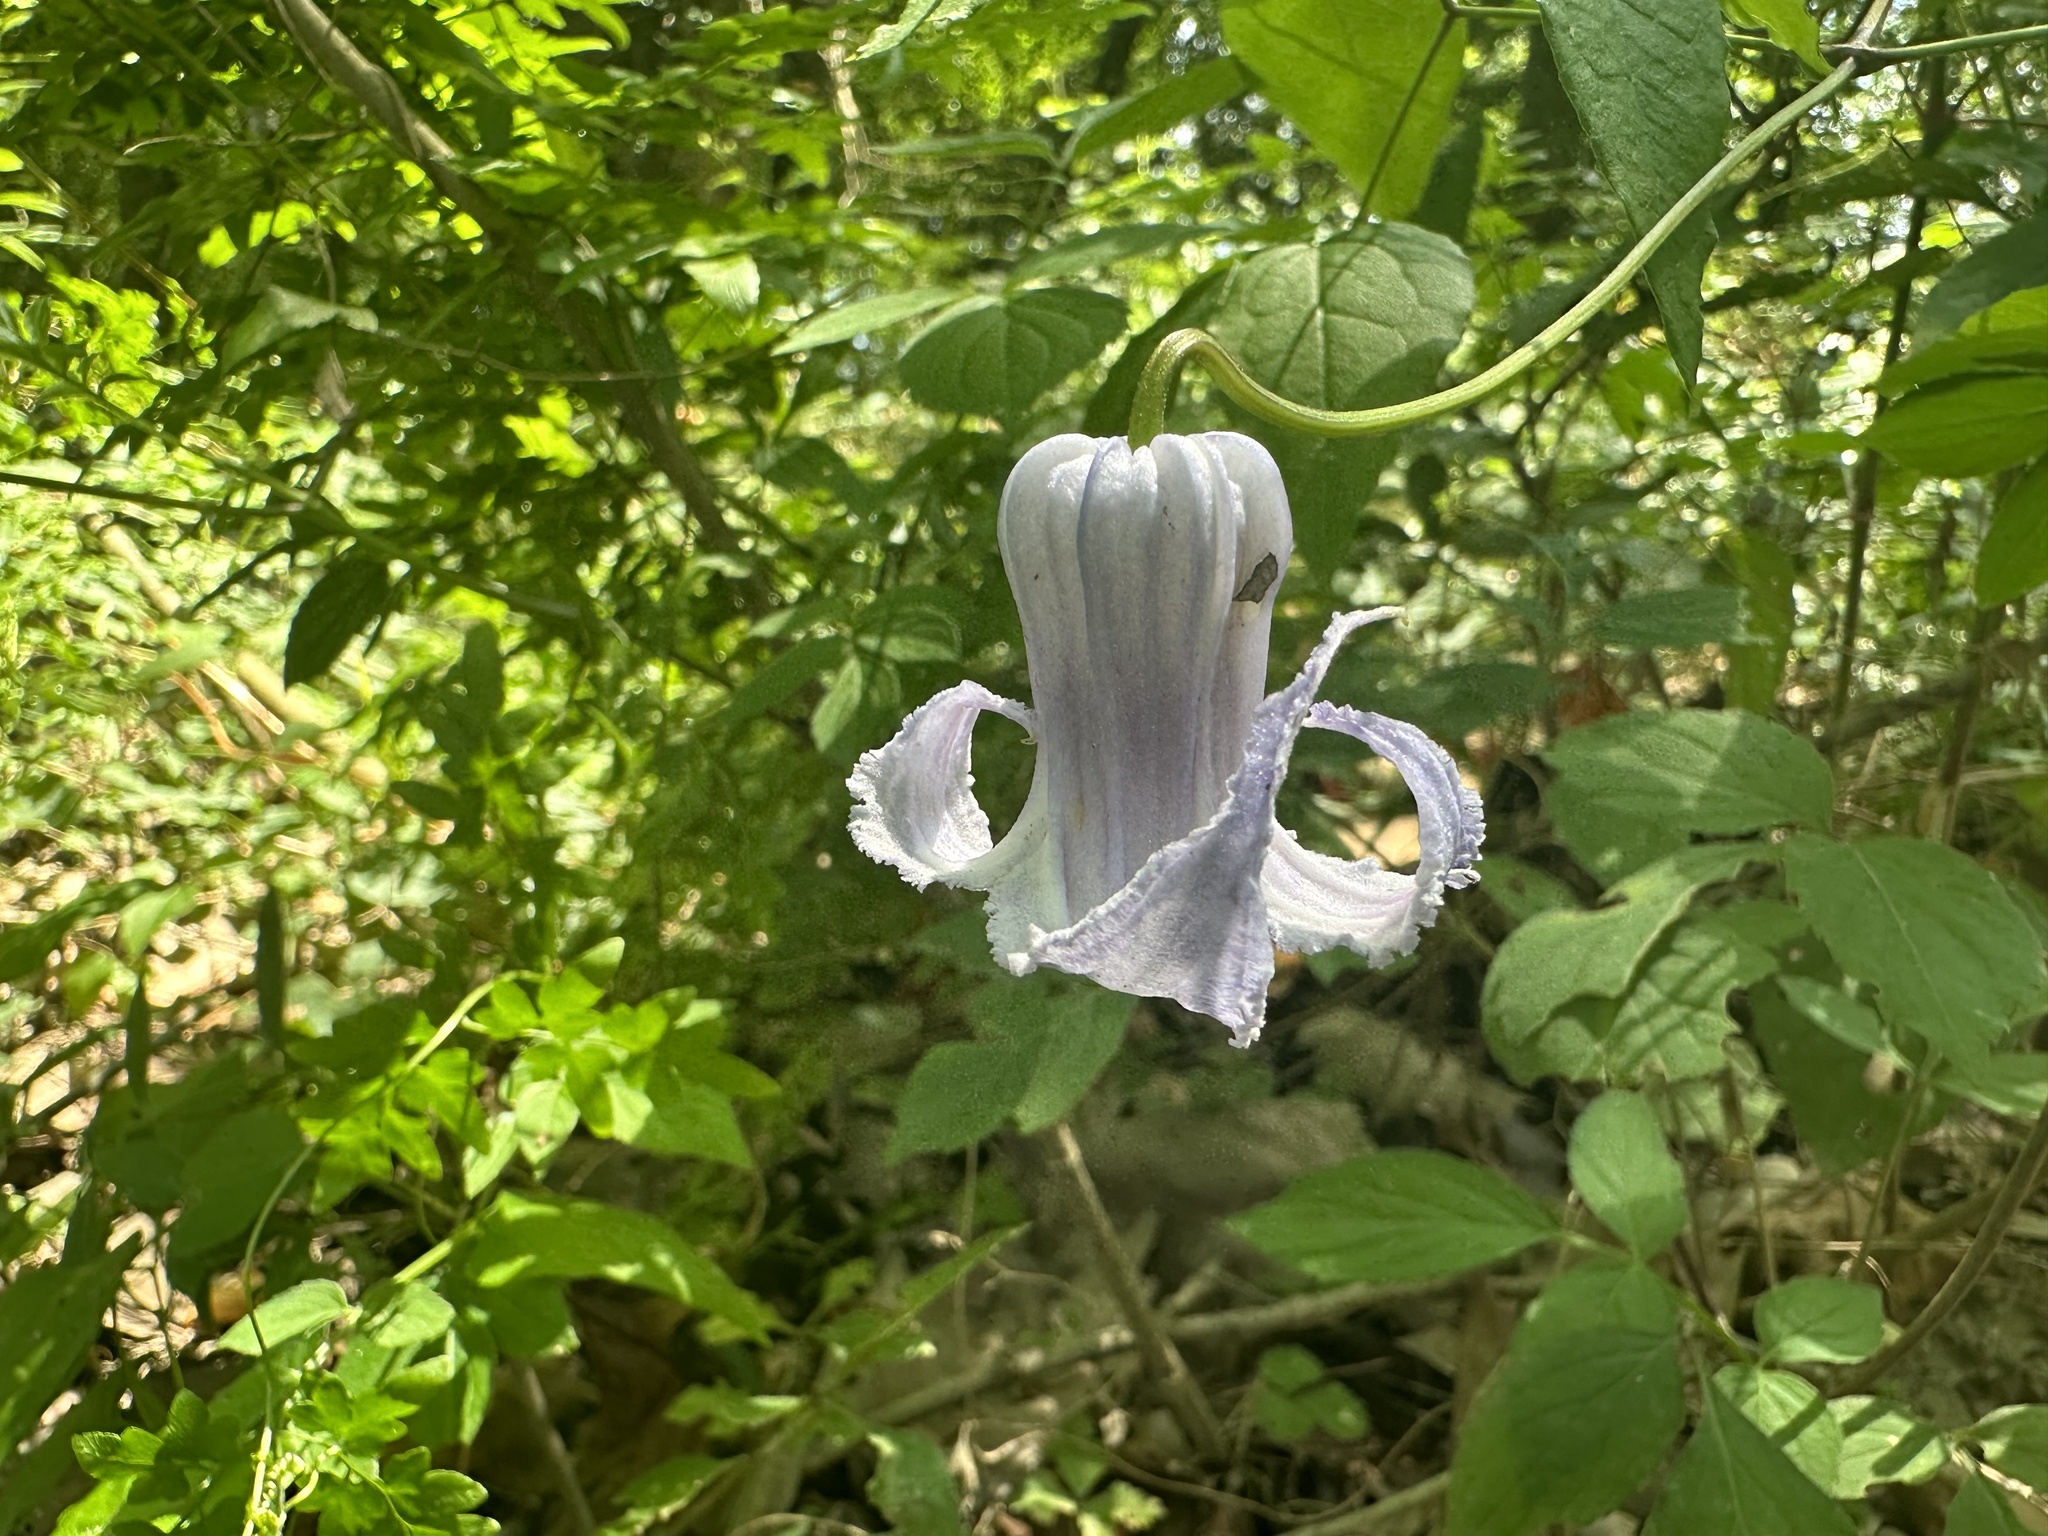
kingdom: Plantae
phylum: Tracheophyta
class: Magnoliopsida
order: Ranunculales
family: Ranunculaceae
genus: Clematis
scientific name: Clematis crispa
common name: Curly clematis
